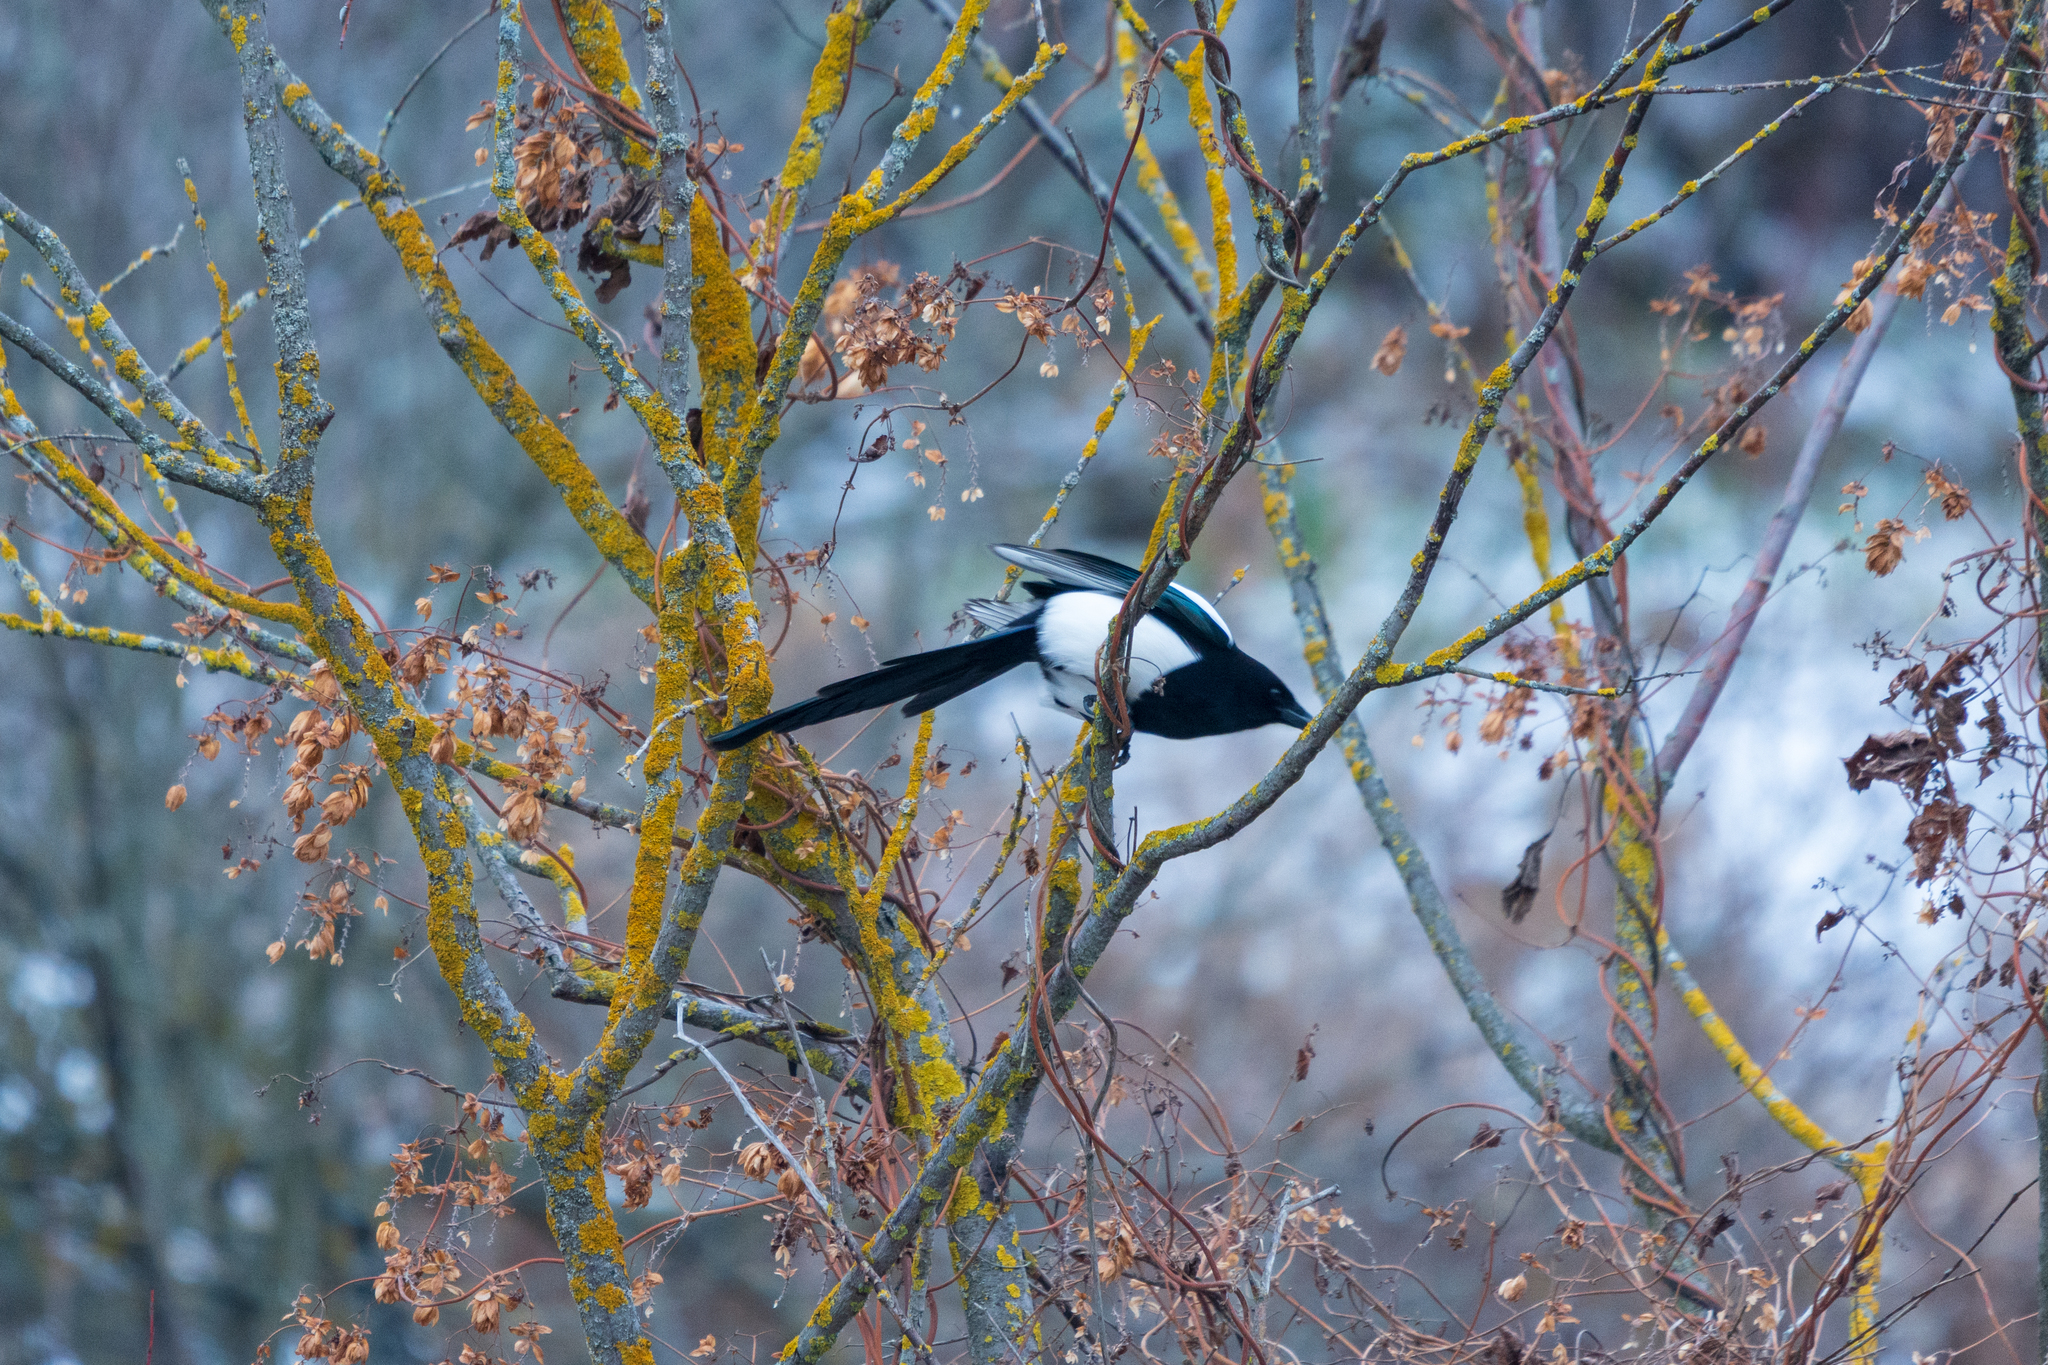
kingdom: Animalia
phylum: Chordata
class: Aves
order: Passeriformes
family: Corvidae
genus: Pica
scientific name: Pica pica
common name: Eurasian magpie
